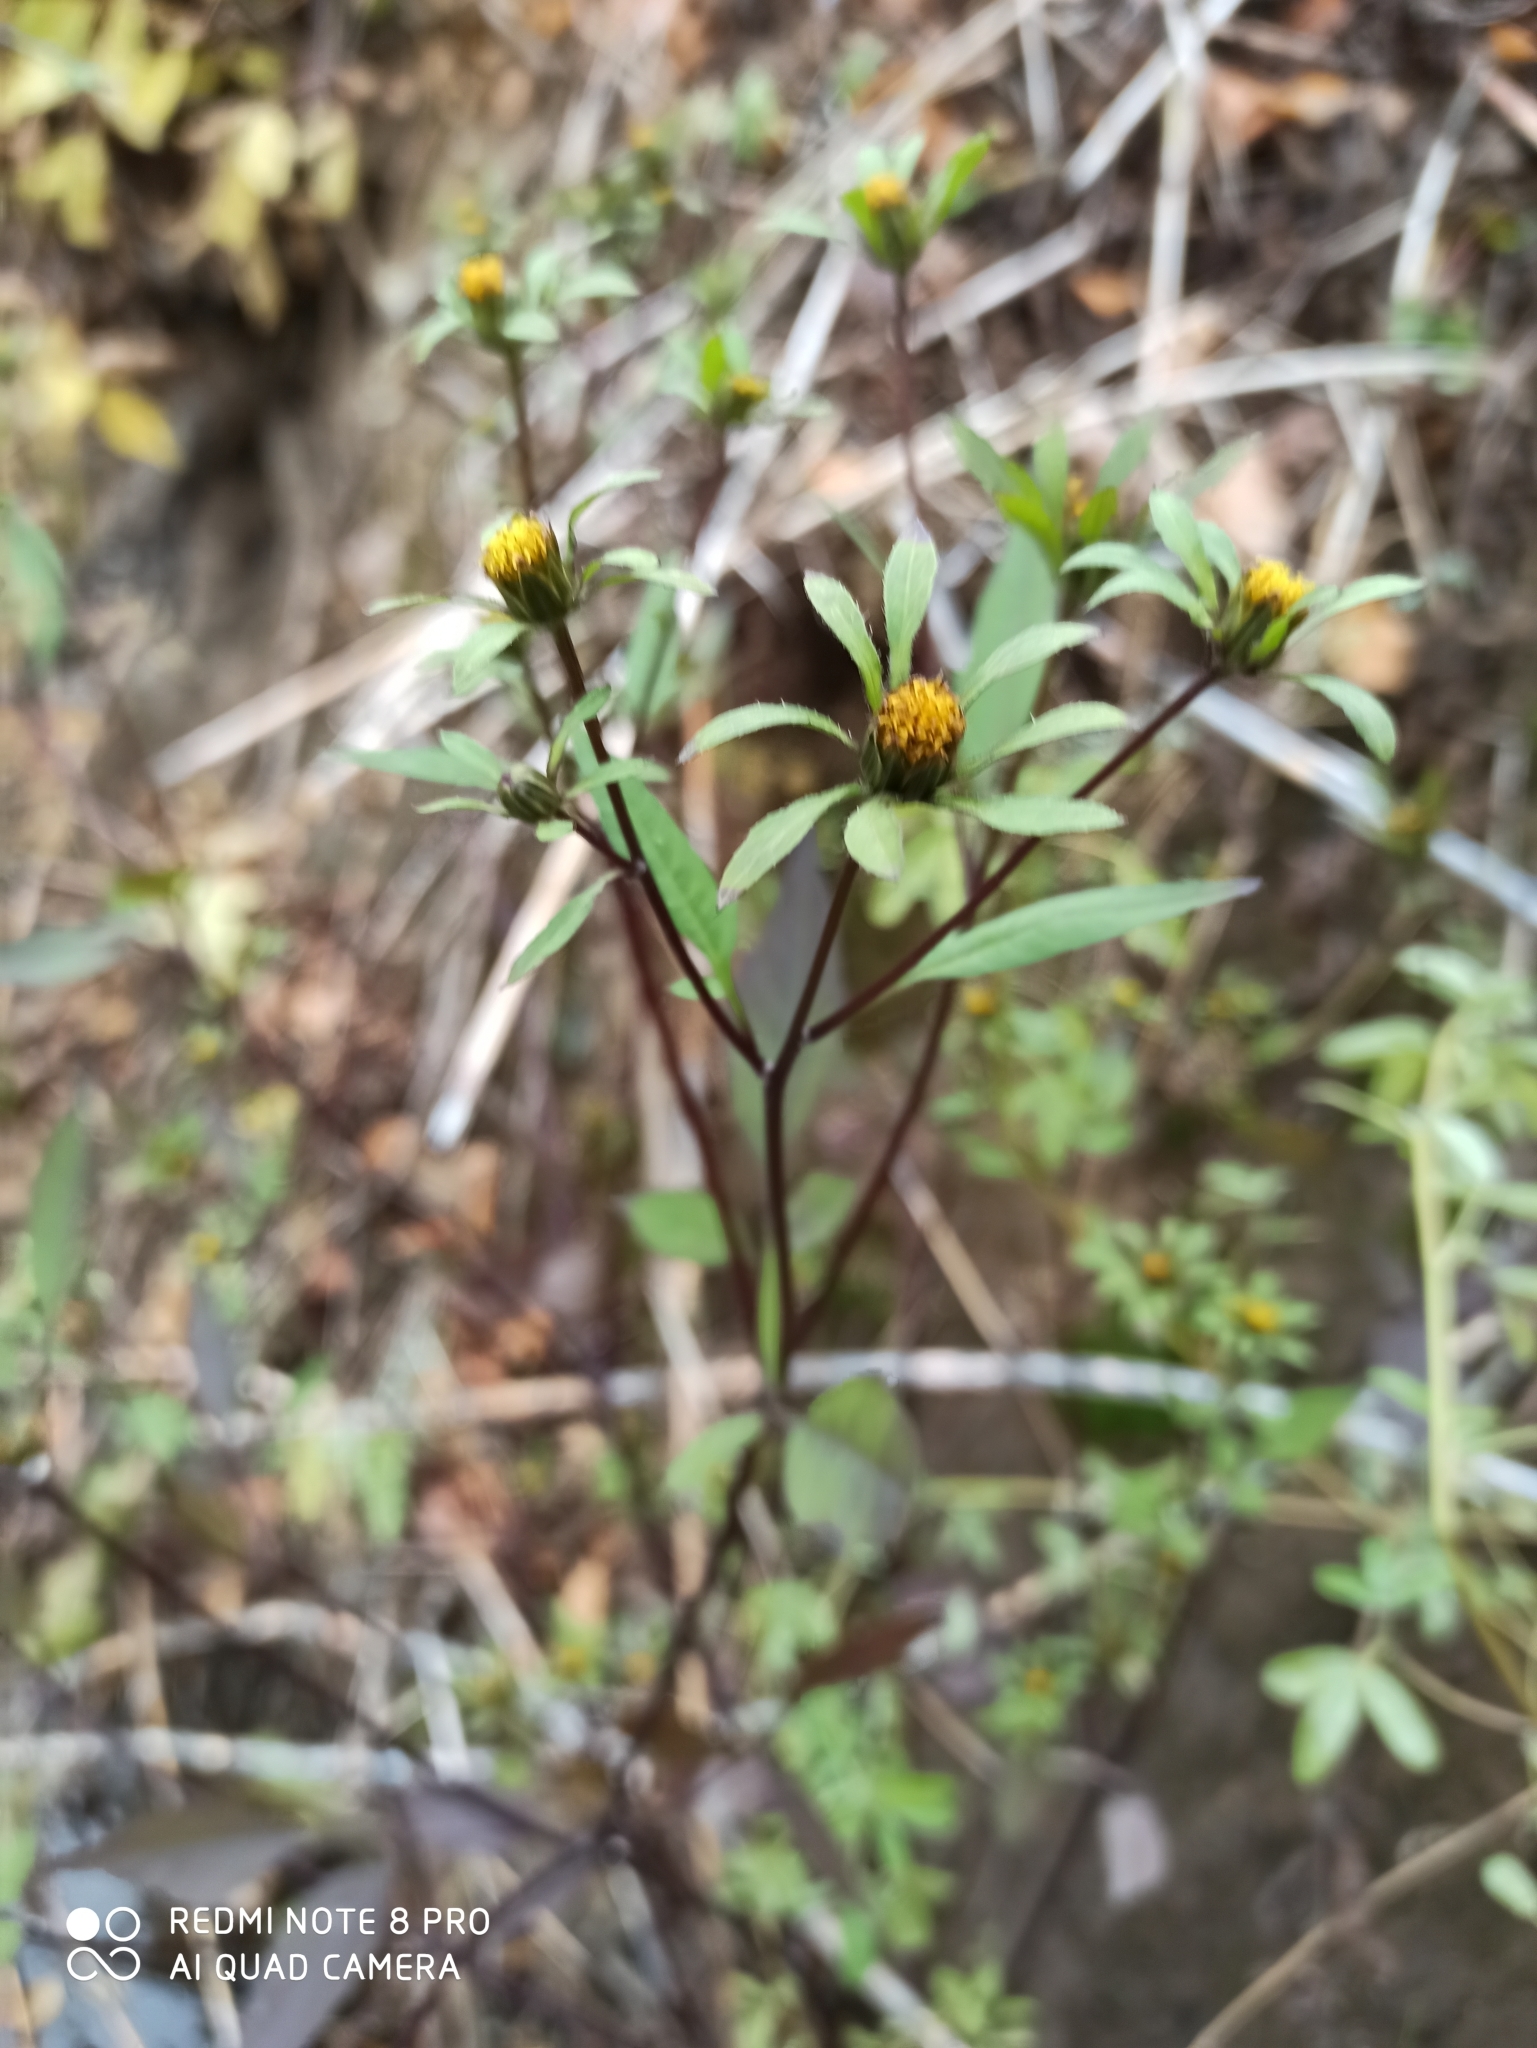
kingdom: Plantae
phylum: Tracheophyta
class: Magnoliopsida
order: Asterales
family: Asteraceae
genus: Bidens
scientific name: Bidens frondosa
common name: Beggarticks
